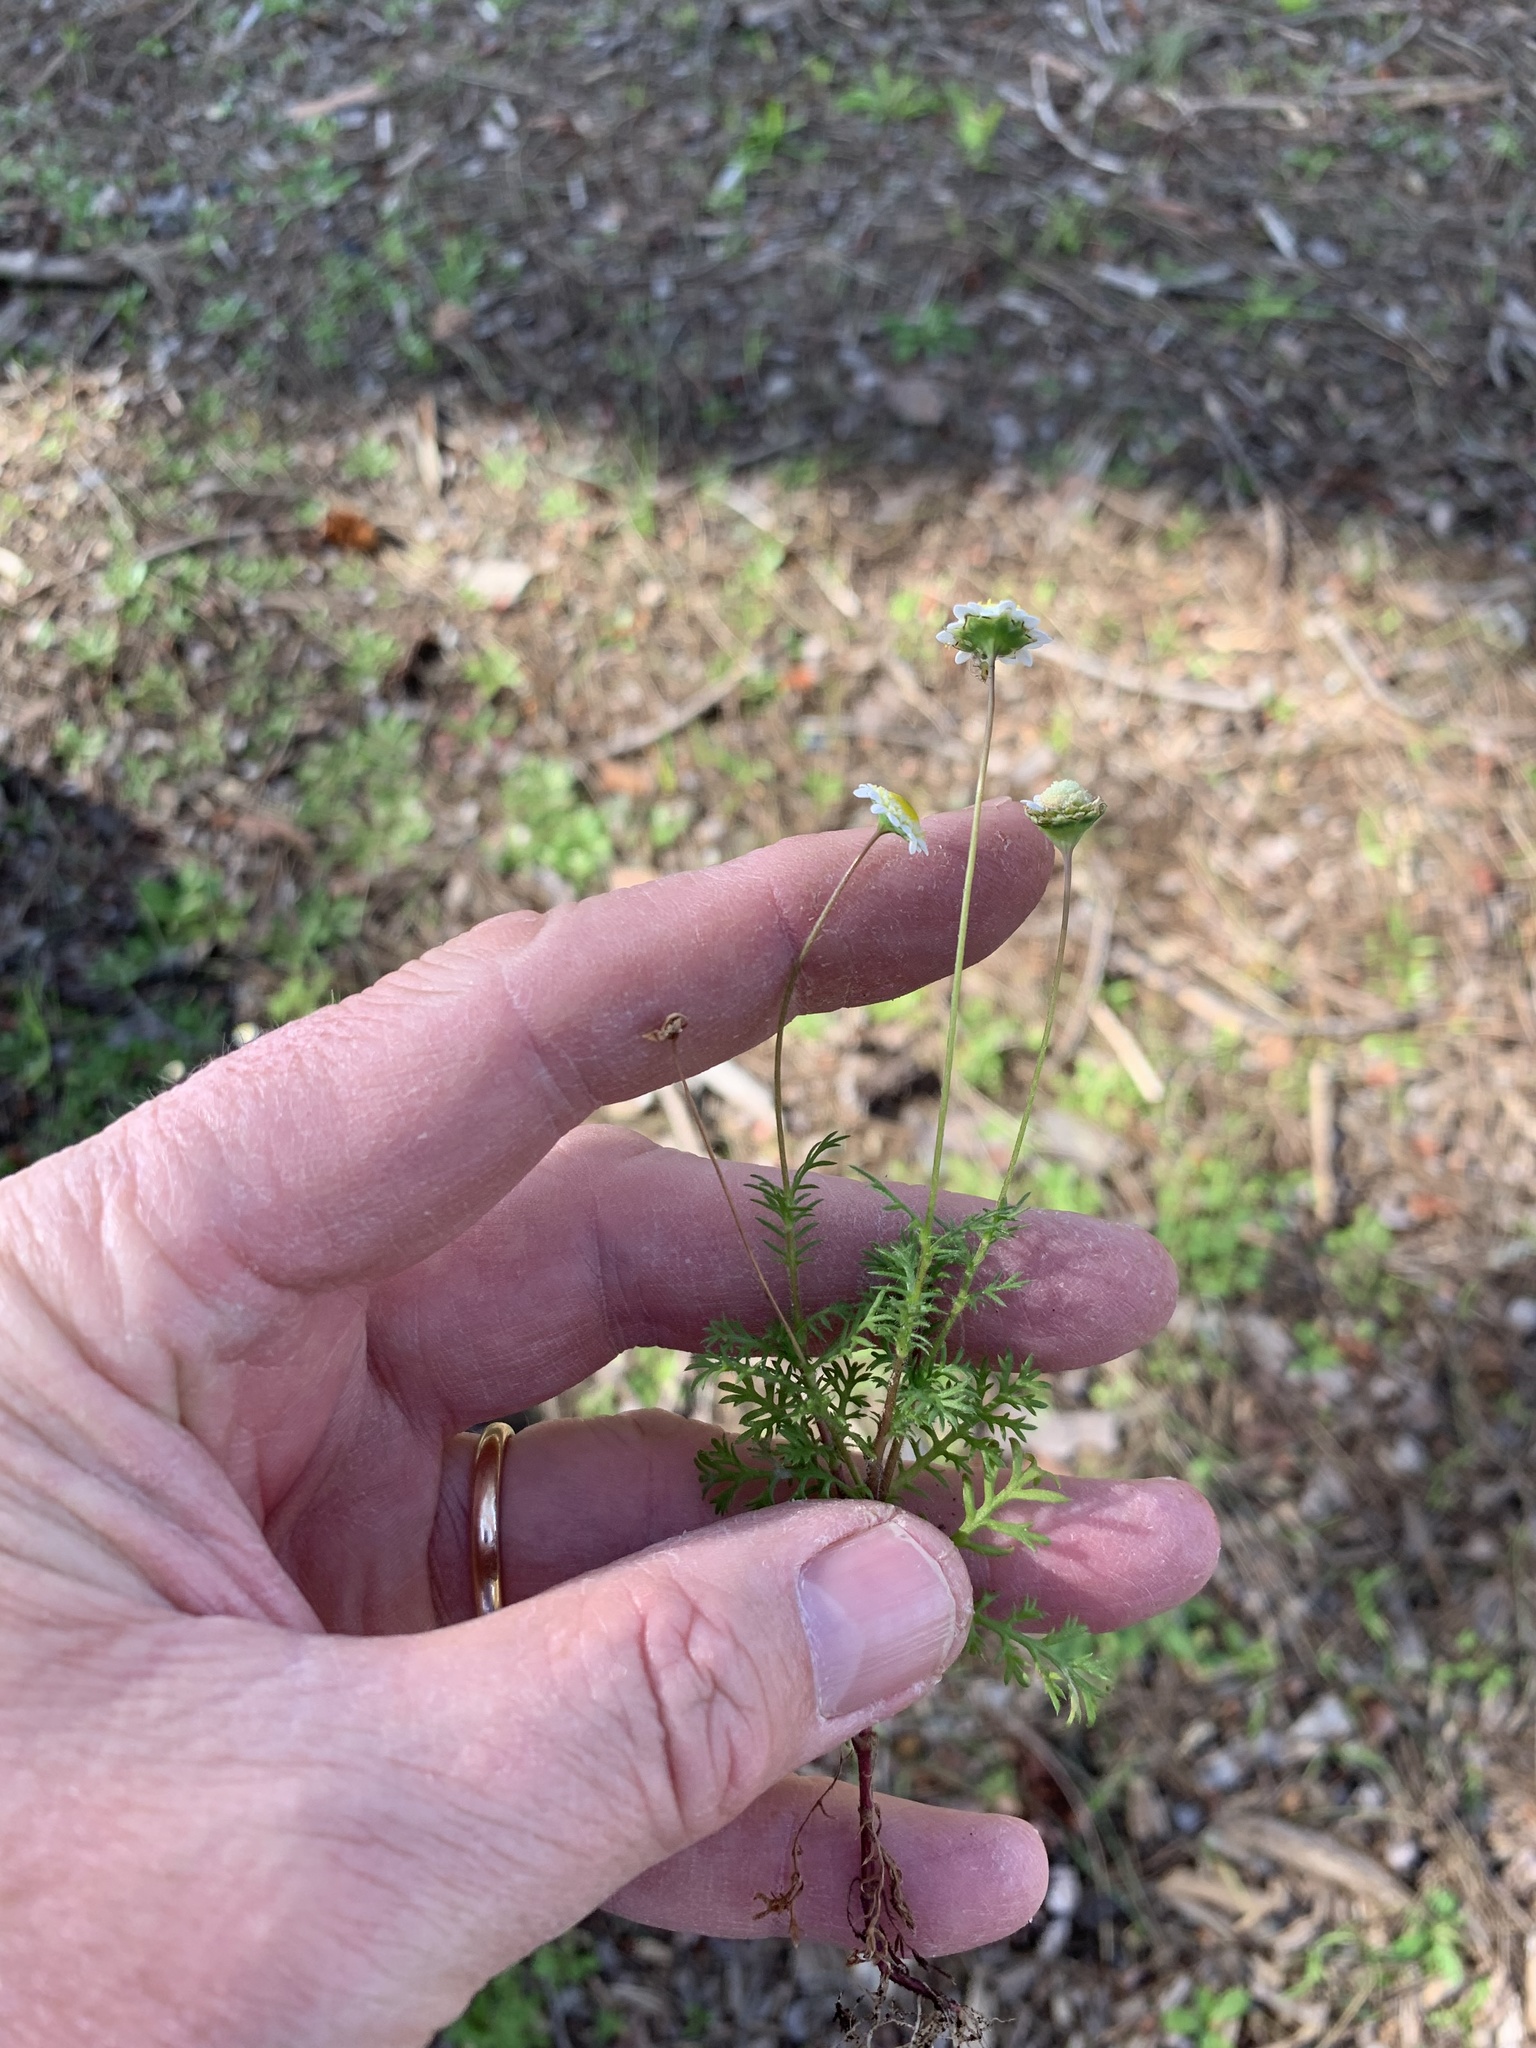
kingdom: Plantae
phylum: Tracheophyta
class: Magnoliopsida
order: Asterales
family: Asteraceae
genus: Cotula
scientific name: Cotula turbinata
